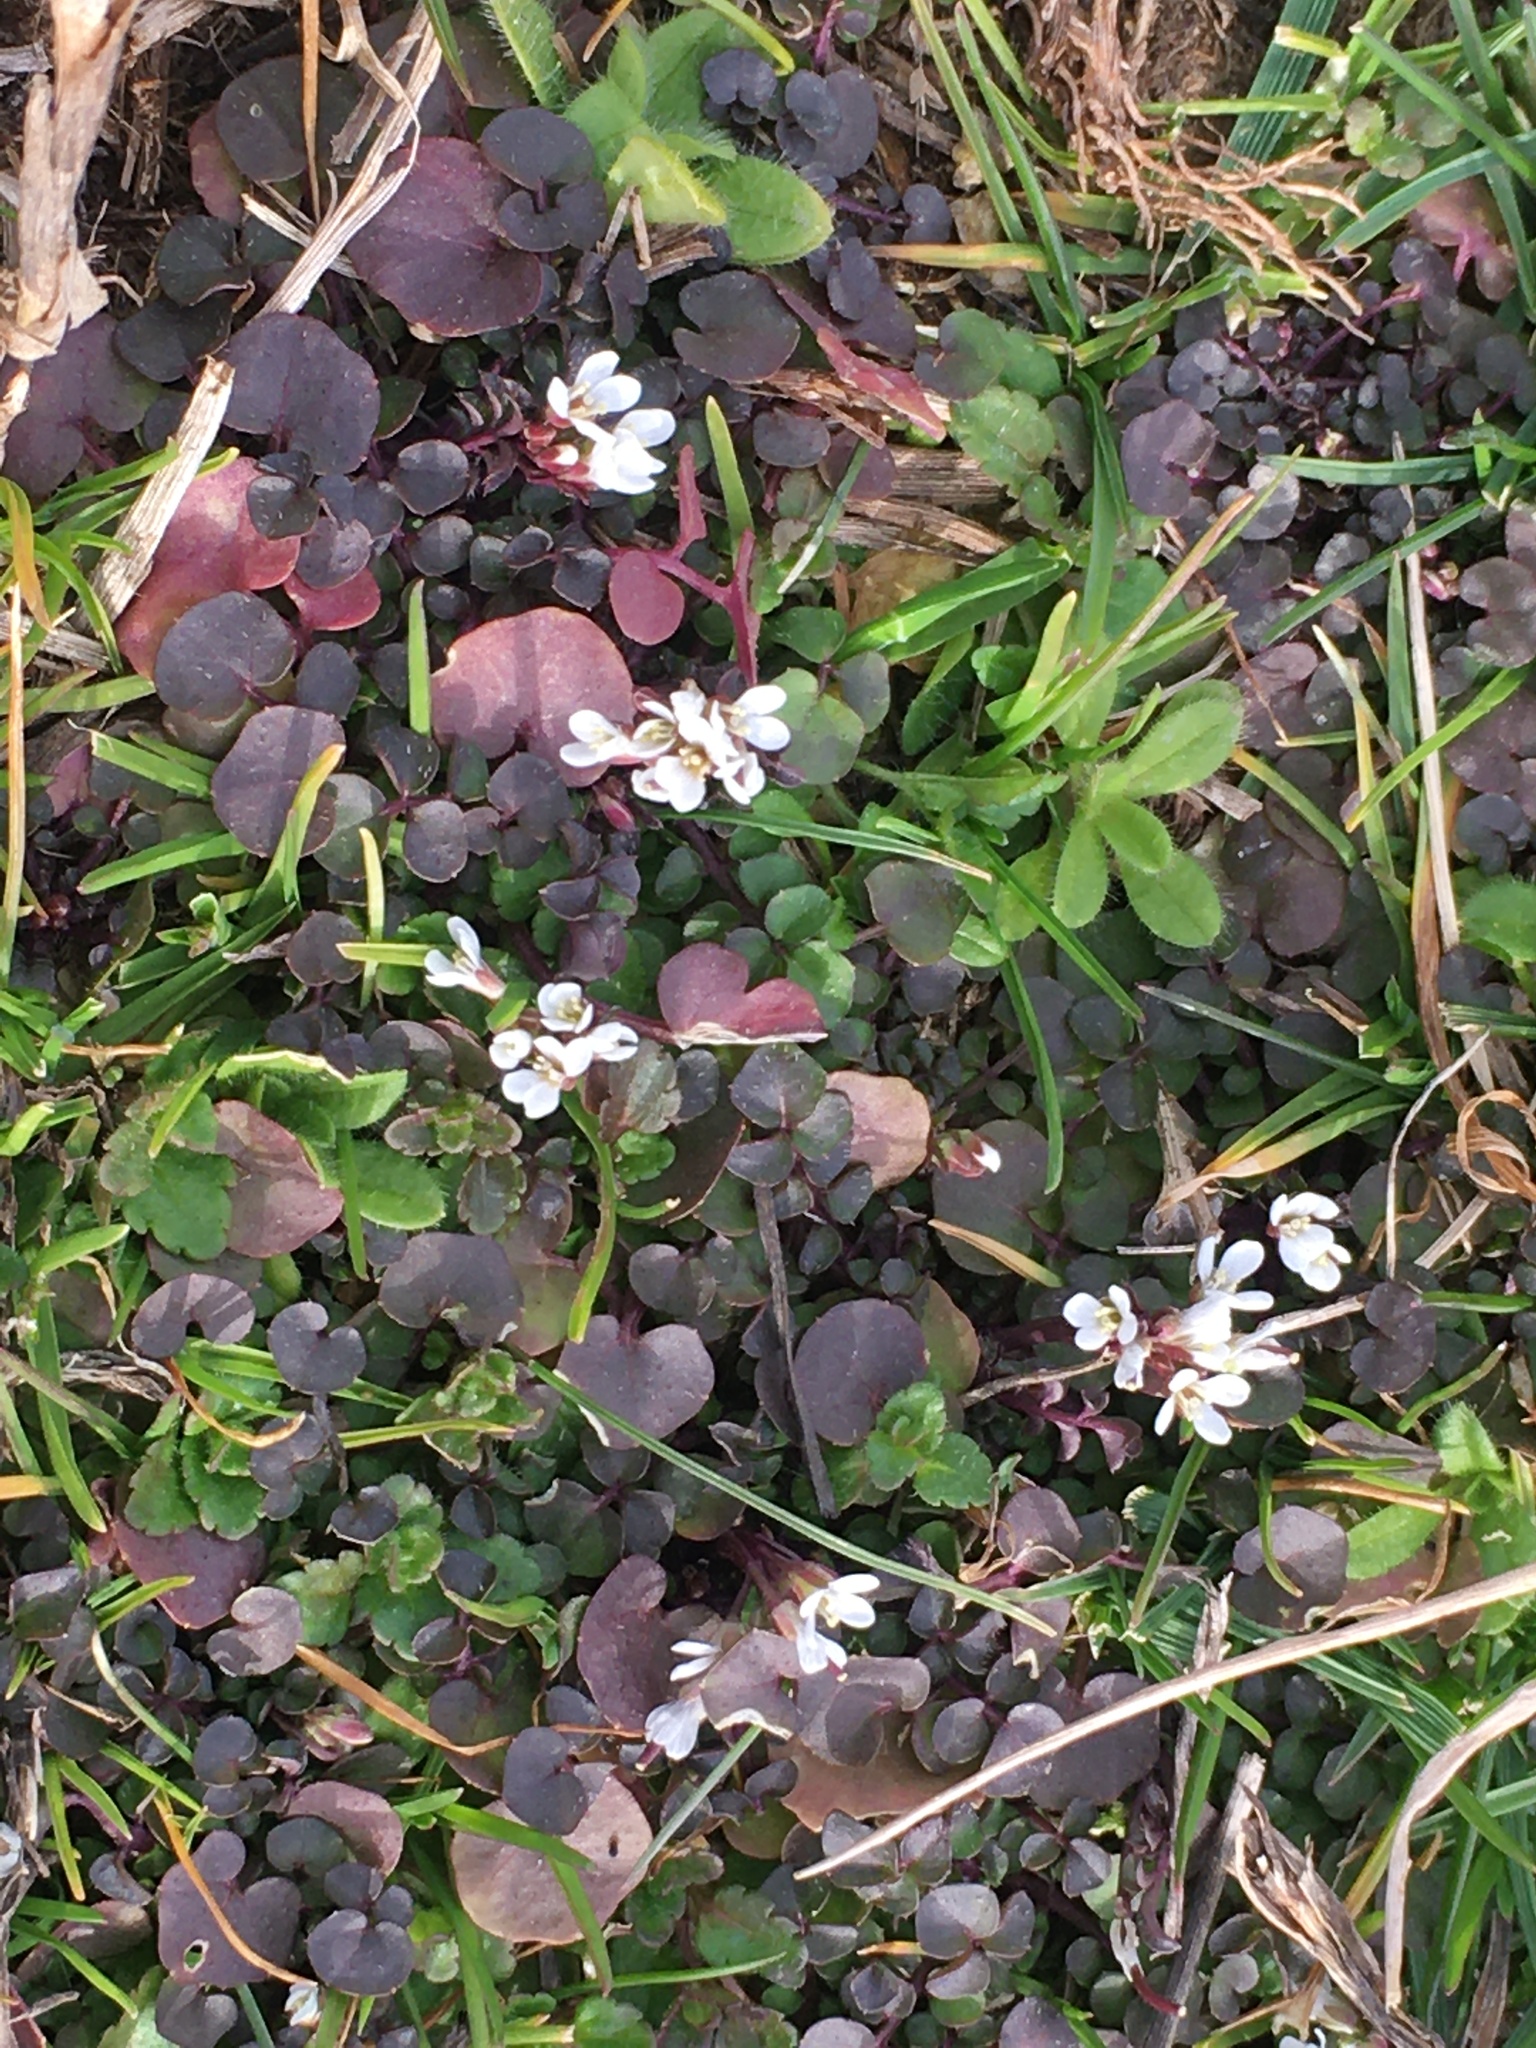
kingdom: Plantae
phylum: Tracheophyta
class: Magnoliopsida
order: Brassicales
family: Brassicaceae
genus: Cardamine
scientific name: Cardamine hirsuta
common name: Hairy bittercress
